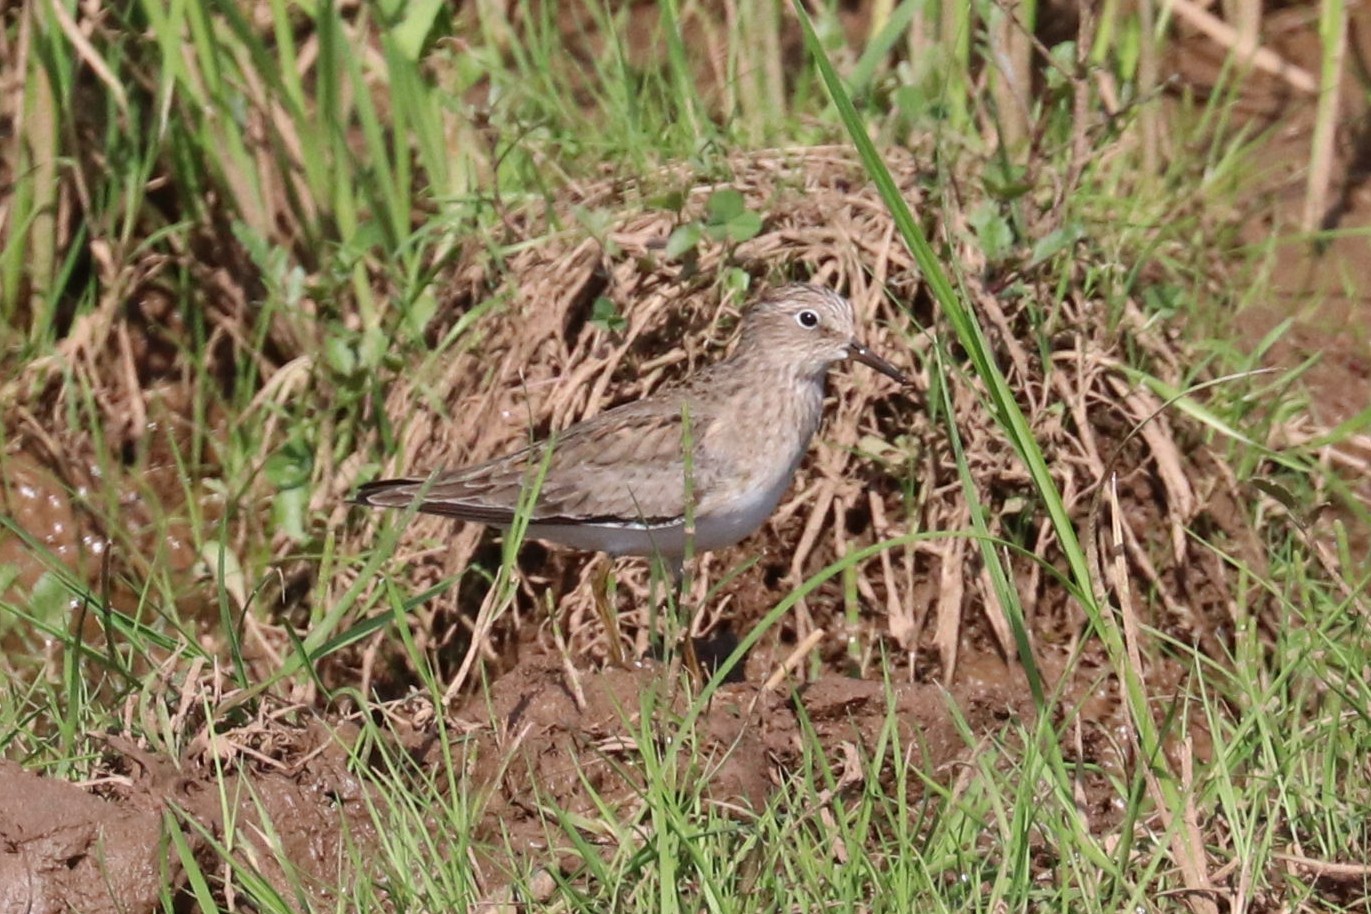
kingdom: Animalia
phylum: Chordata
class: Aves
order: Charadriiformes
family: Scolopacidae
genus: Calidris
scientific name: Calidris temminckii
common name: Temminck's stint
